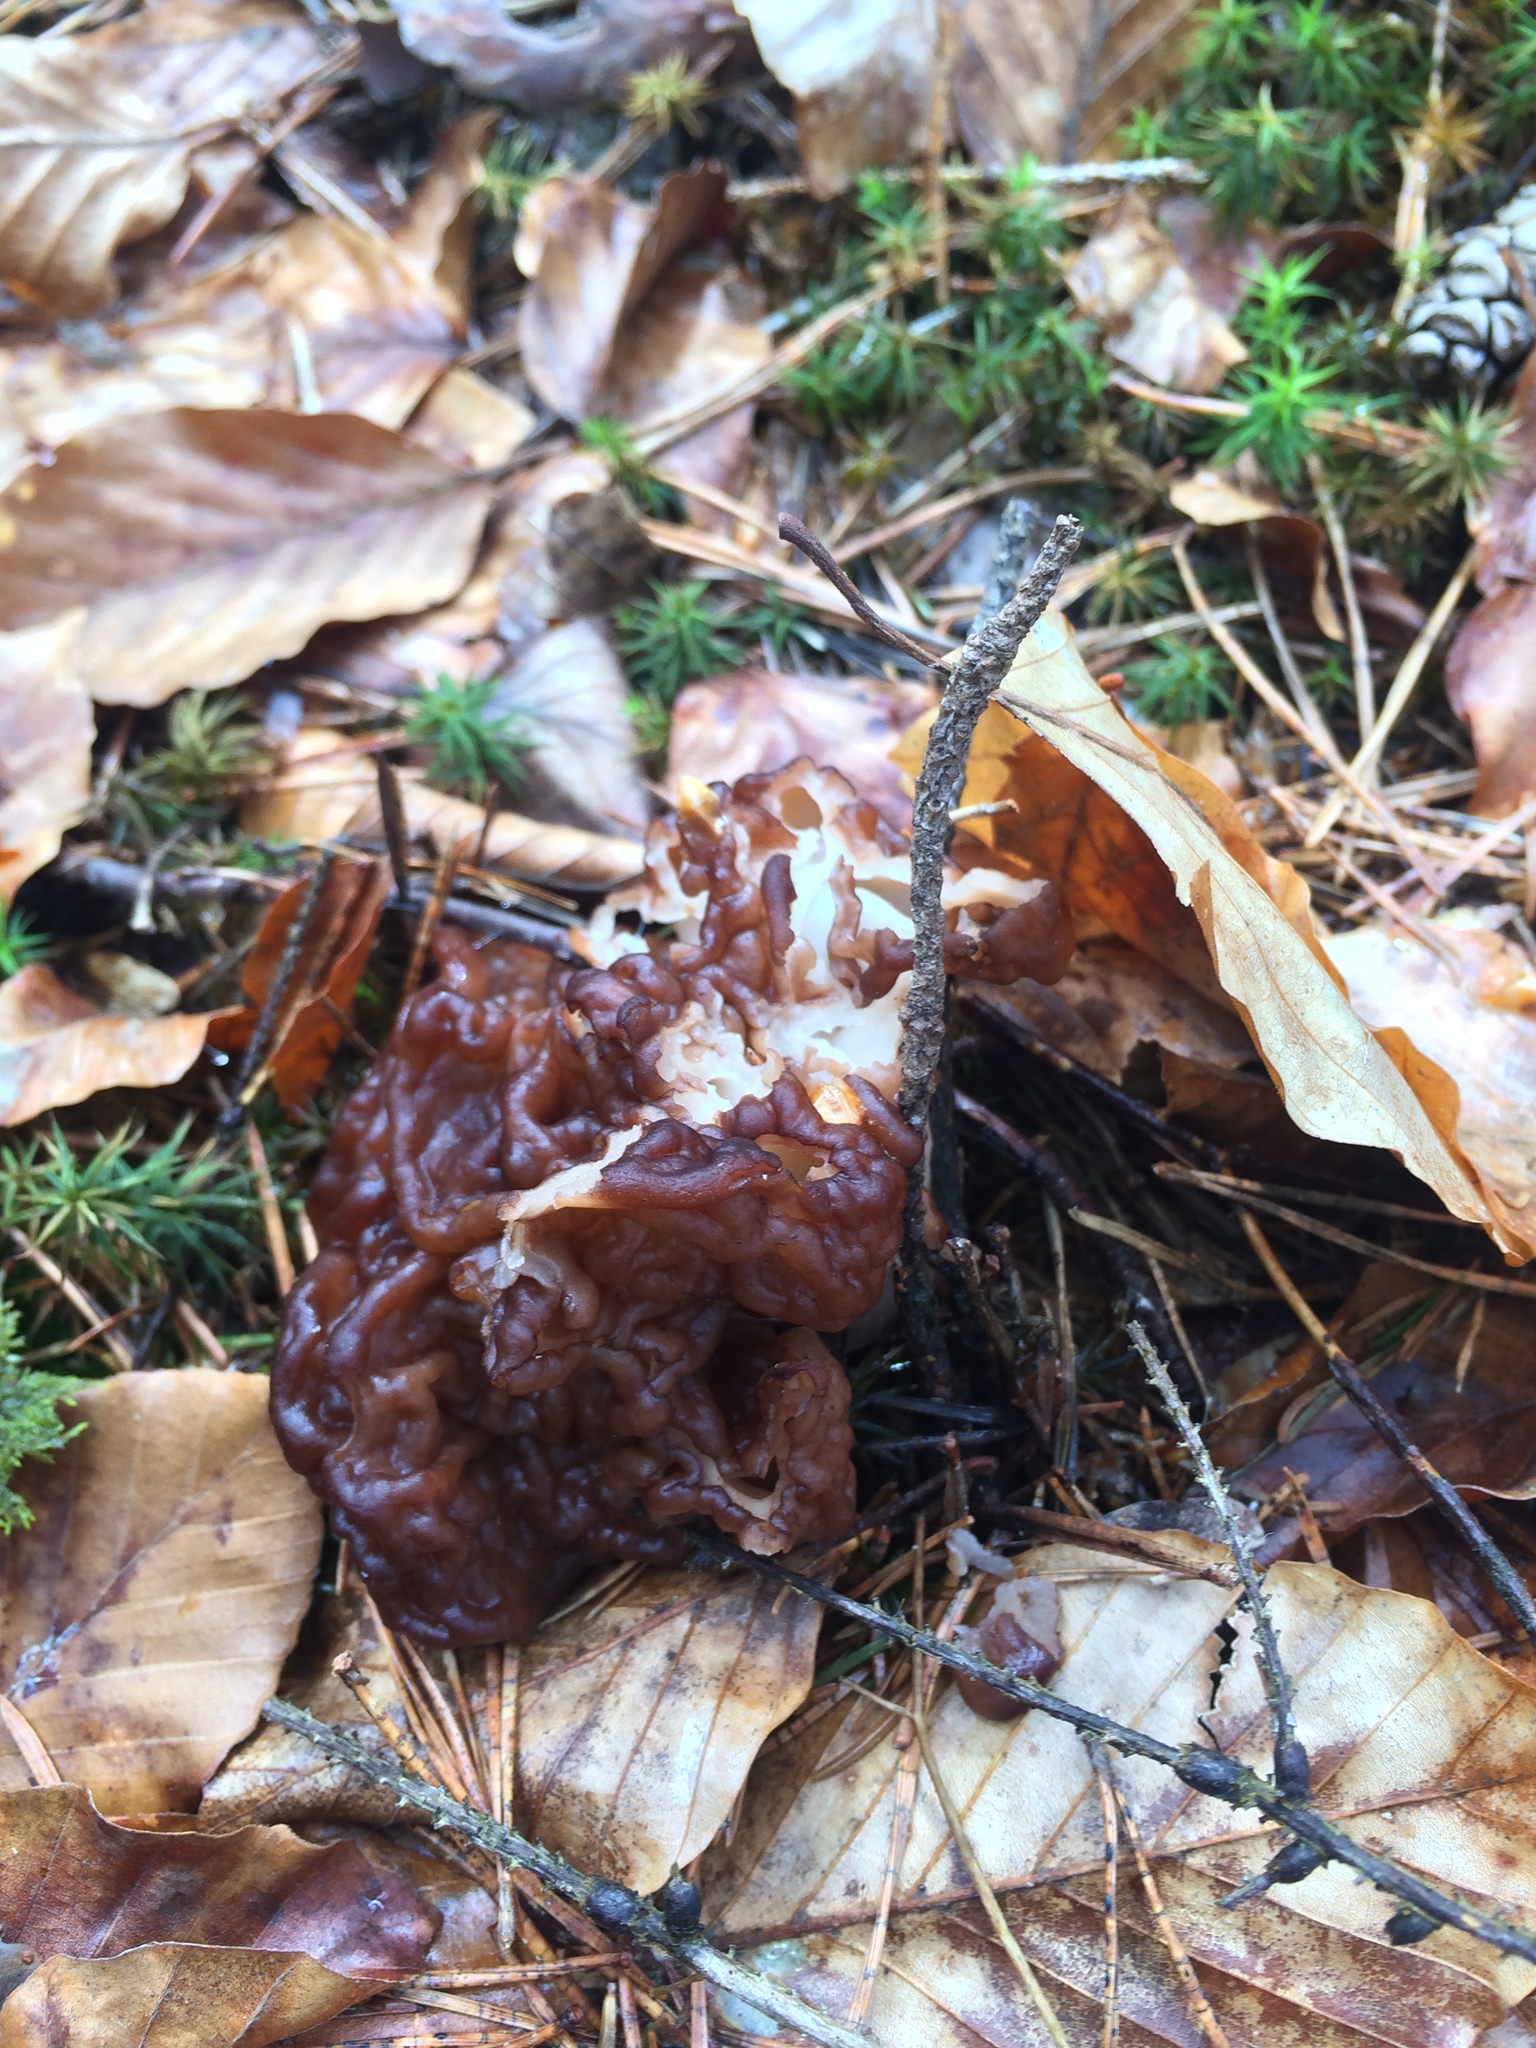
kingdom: Fungi
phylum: Ascomycota
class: Pezizomycetes
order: Pezizales
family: Discinaceae
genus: Gyromitra
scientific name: Gyromitra esculenta
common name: False morel
